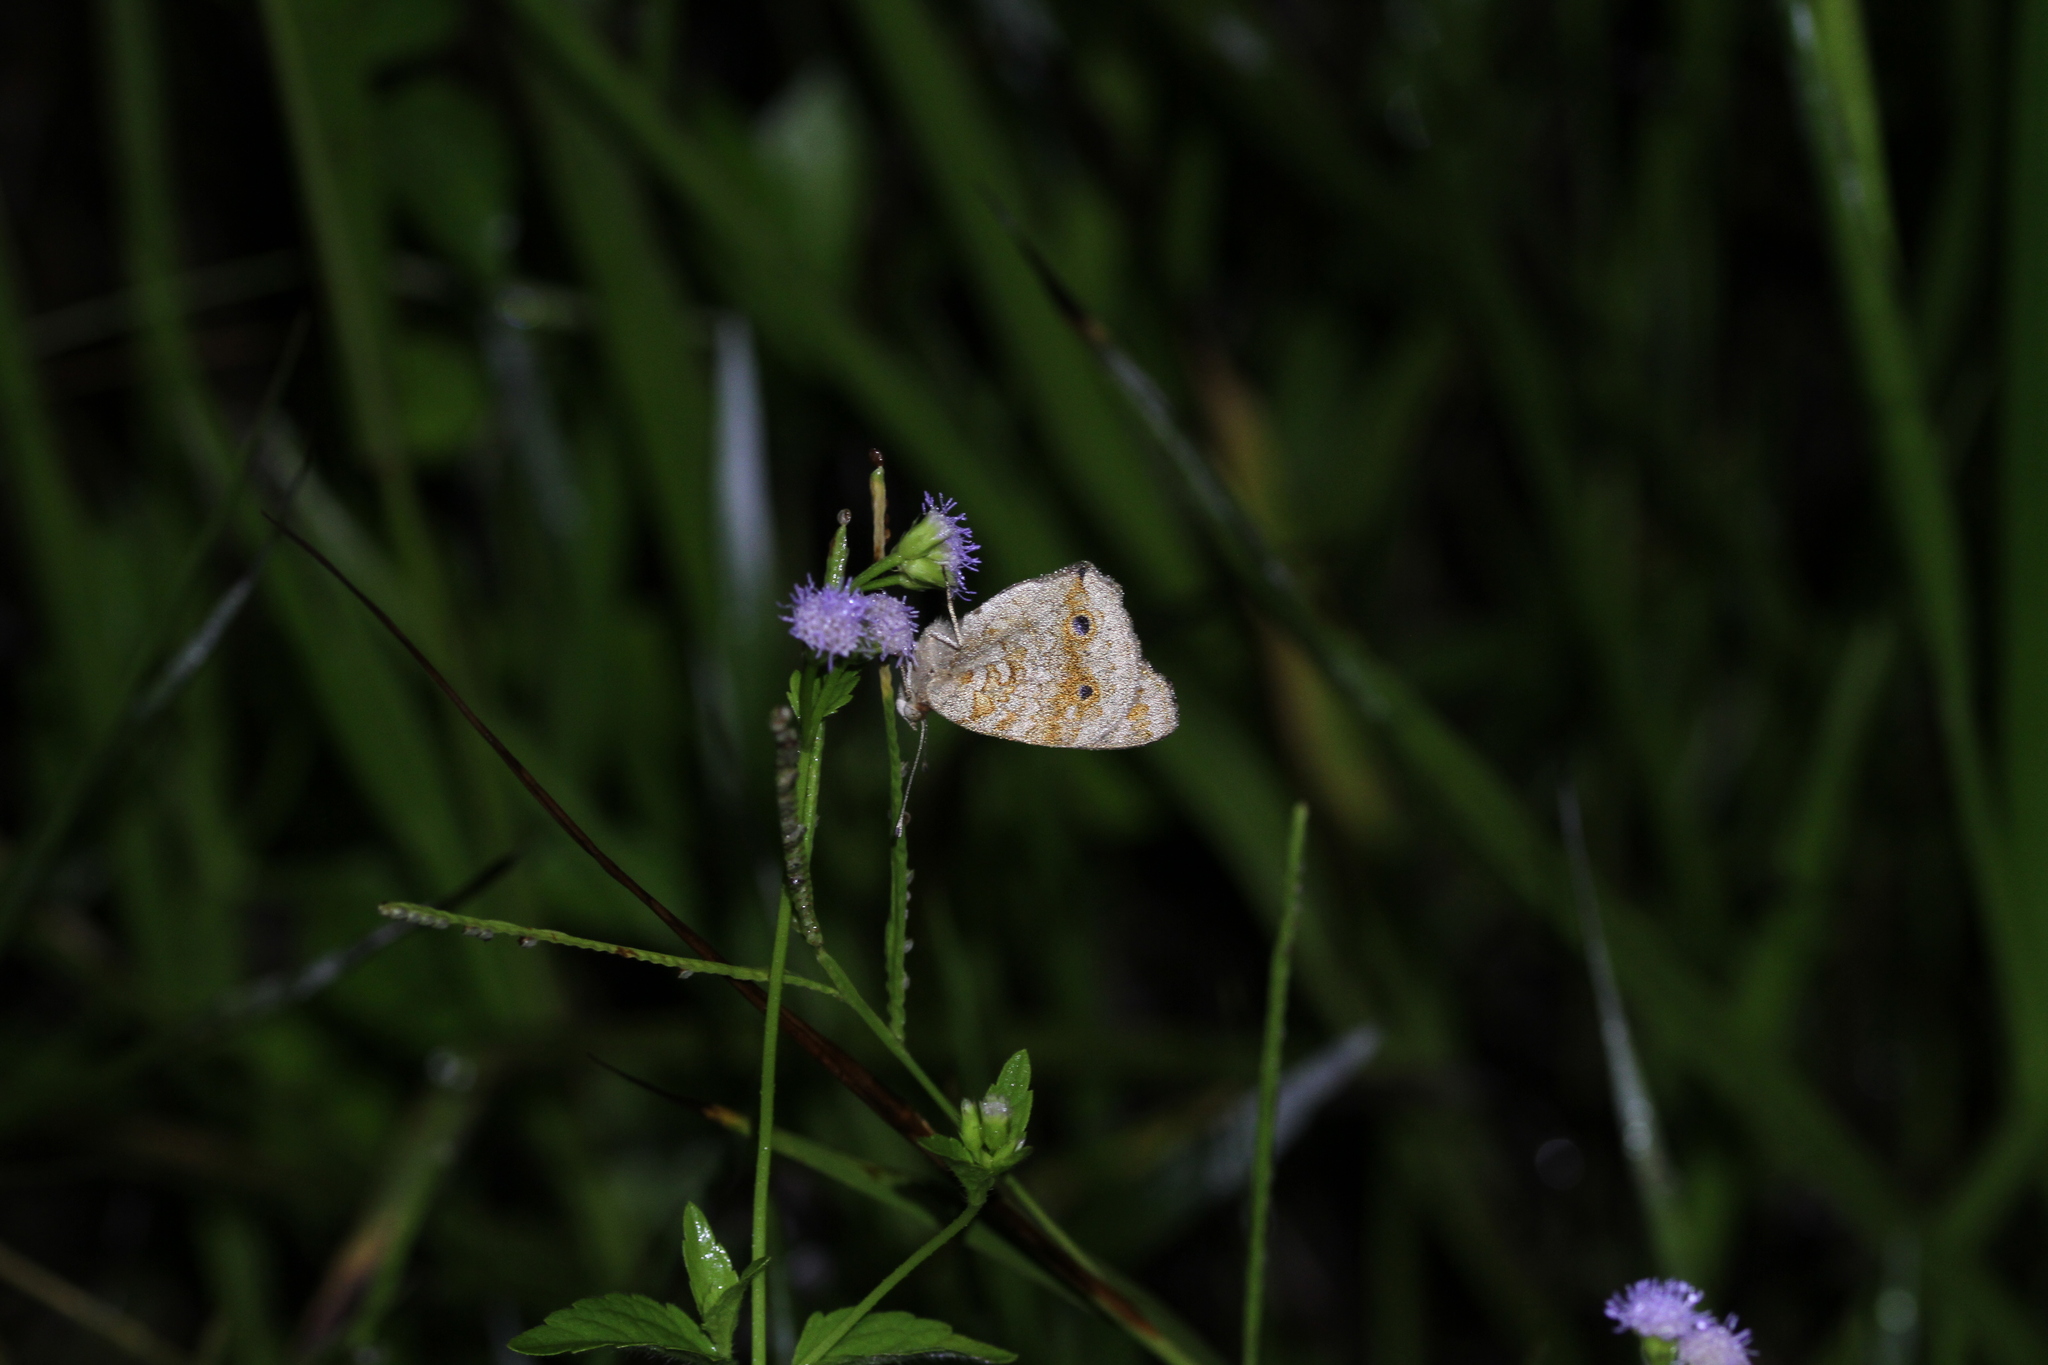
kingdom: Animalia
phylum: Arthropoda
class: Insecta
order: Lepidoptera
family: Nymphalidae
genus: Junonia
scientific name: Junonia orithya
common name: Blue pansy
